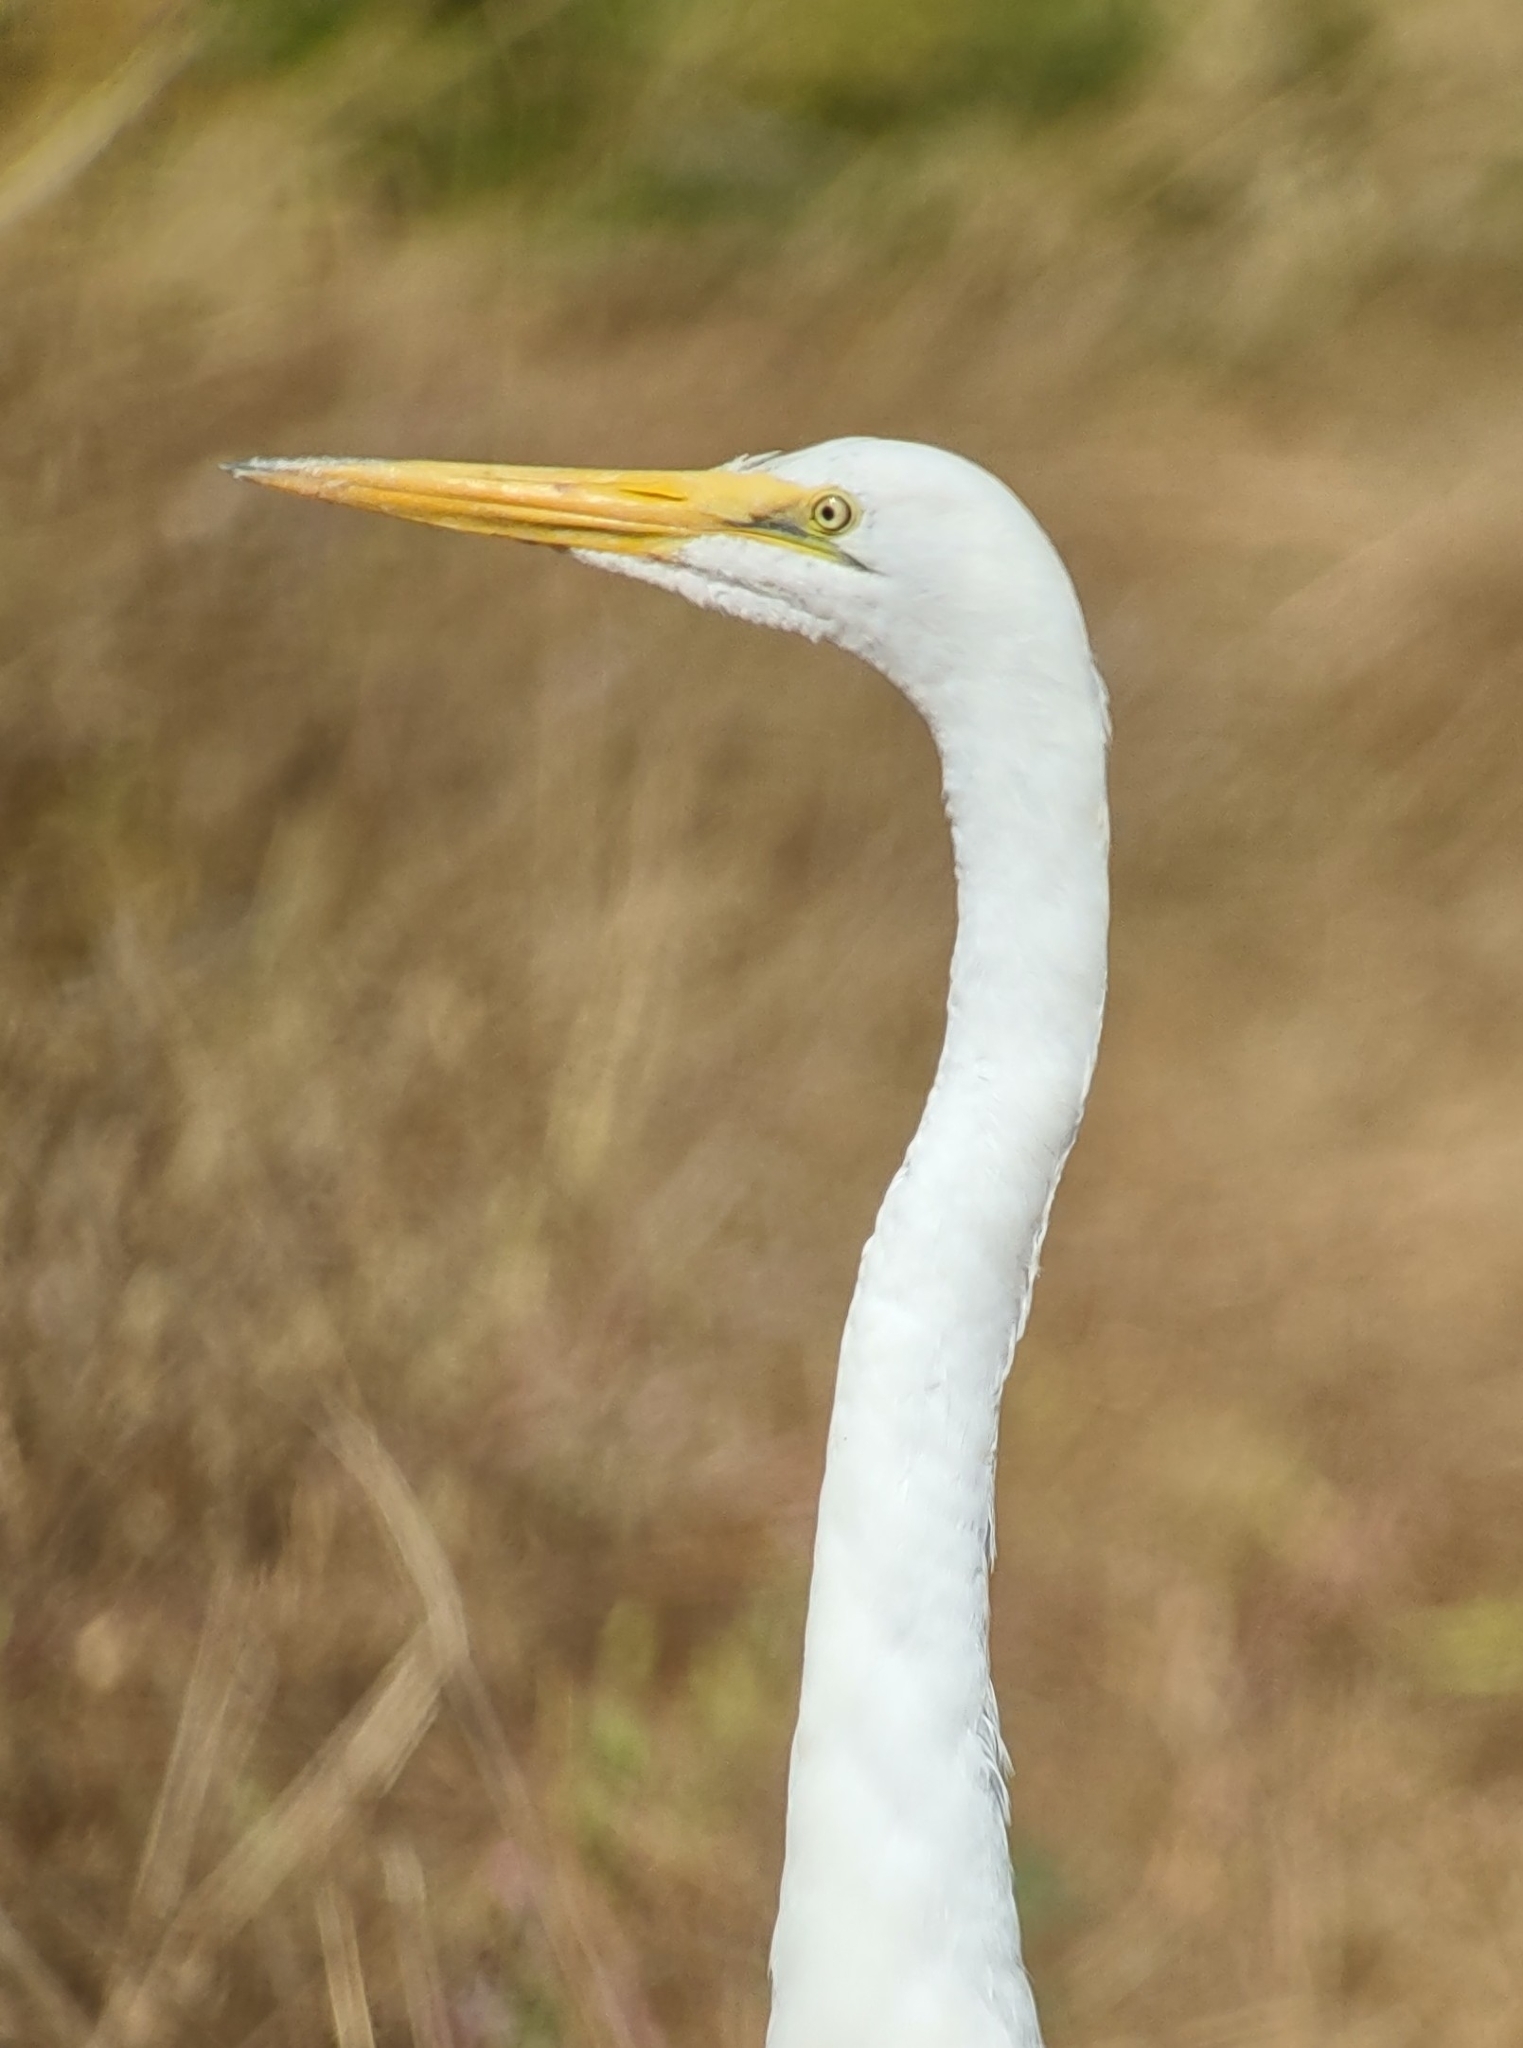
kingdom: Animalia
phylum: Chordata
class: Aves
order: Pelecaniformes
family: Ardeidae
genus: Ardea
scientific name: Ardea alba
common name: Great egret
